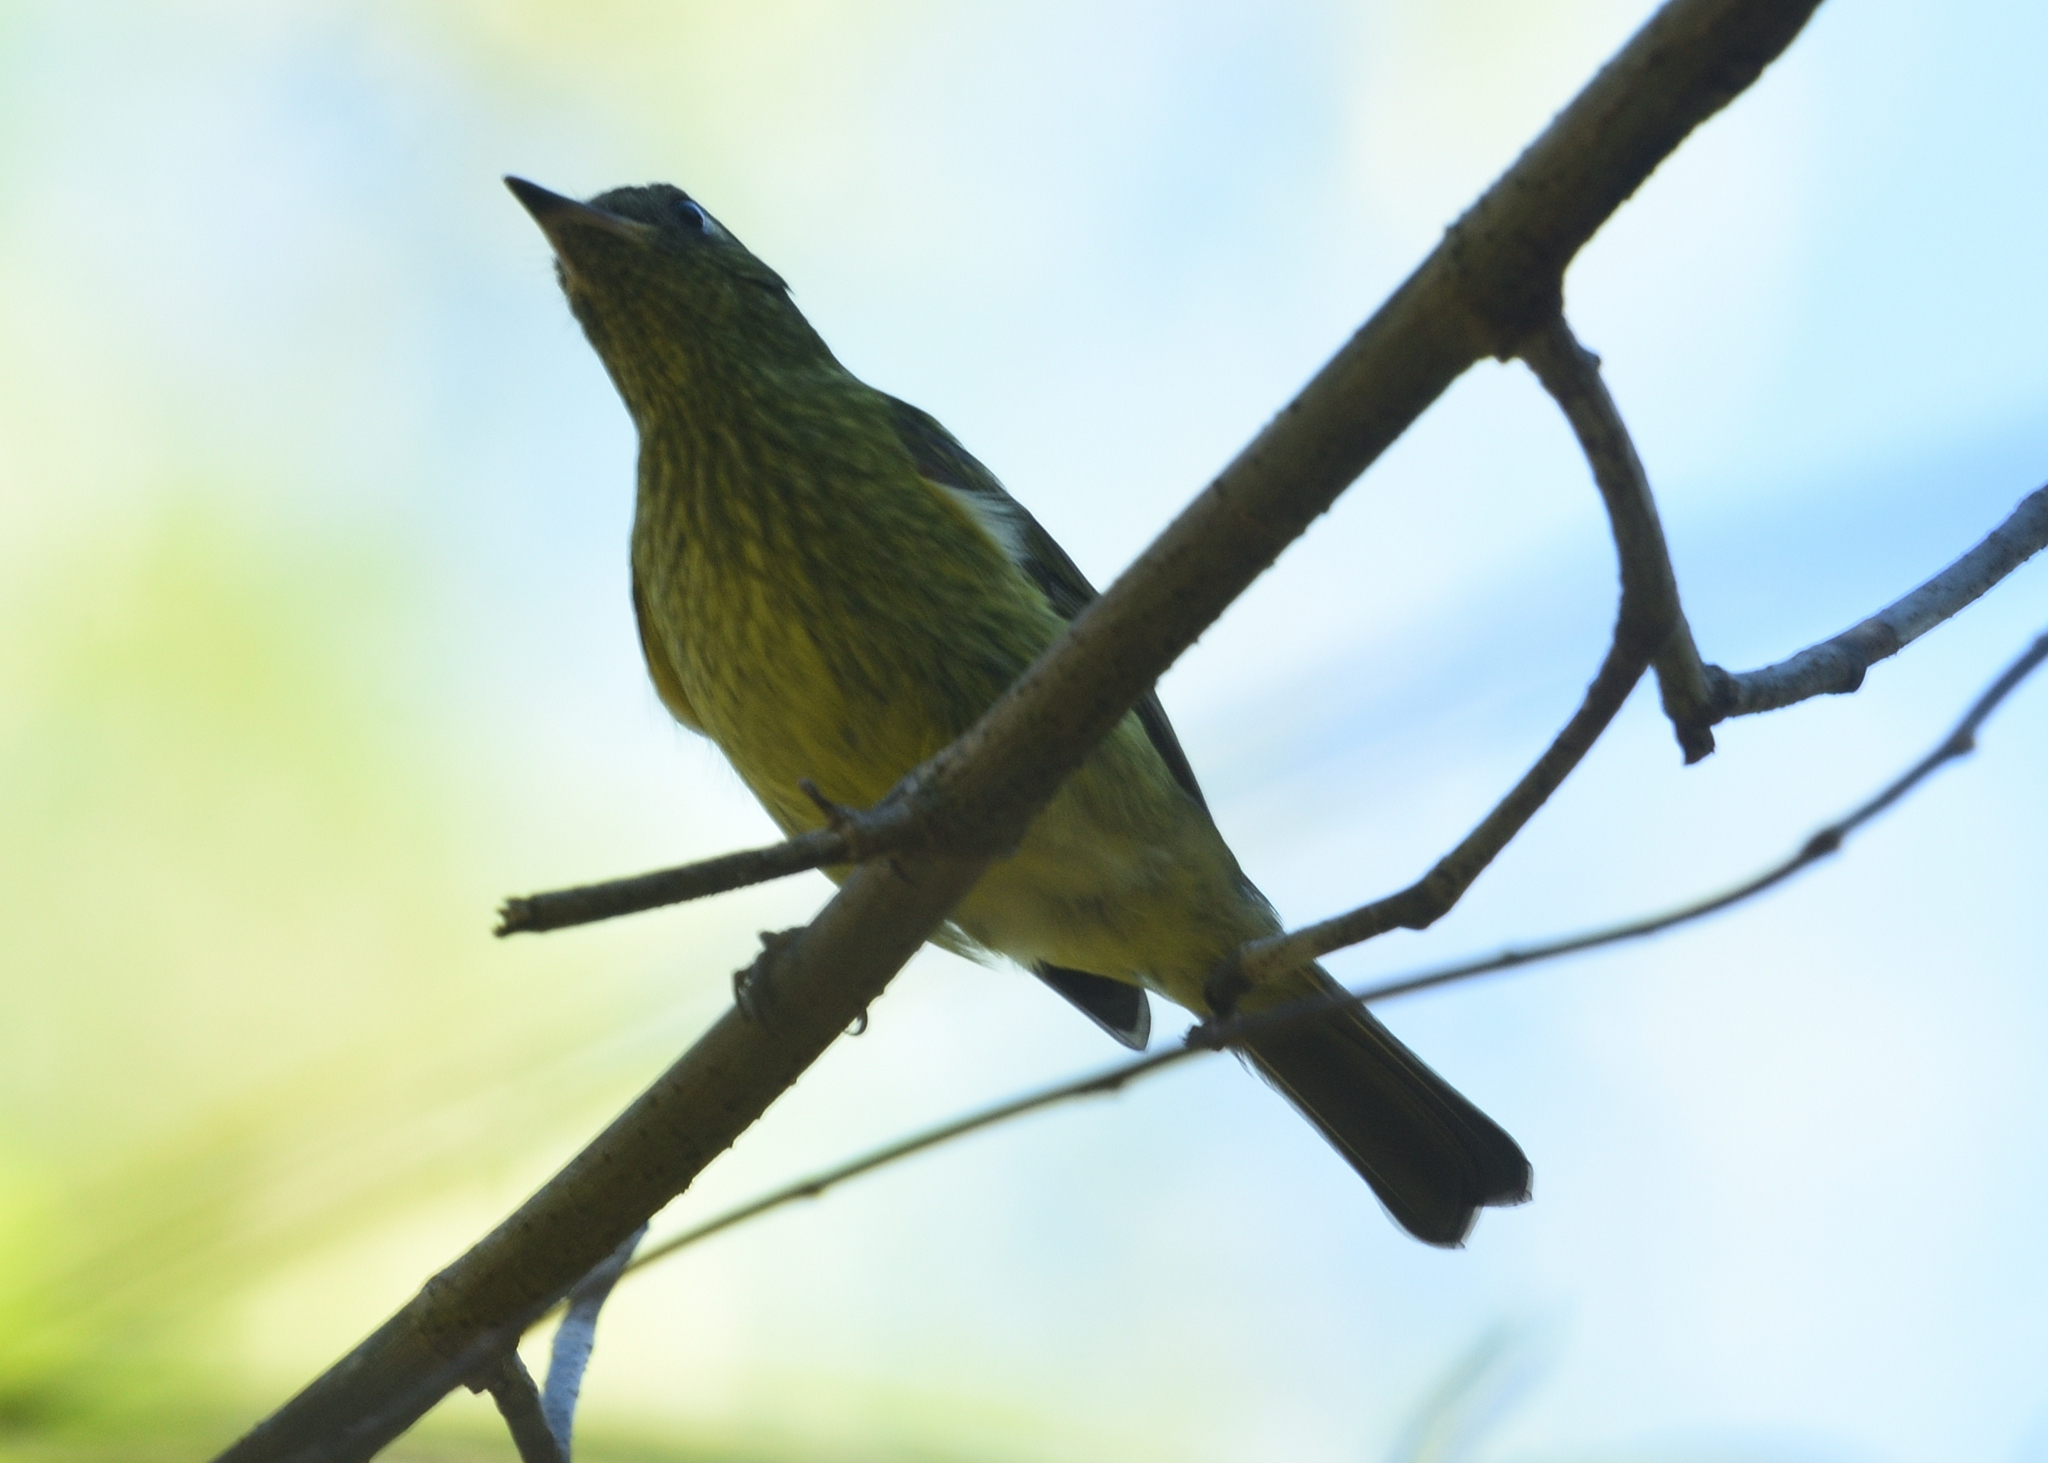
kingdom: Animalia
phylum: Chordata
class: Aves
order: Passeriformes
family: Tyrannidae
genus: Mionectes
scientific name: Mionectes galbinus
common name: Olive-striped flycatcher
